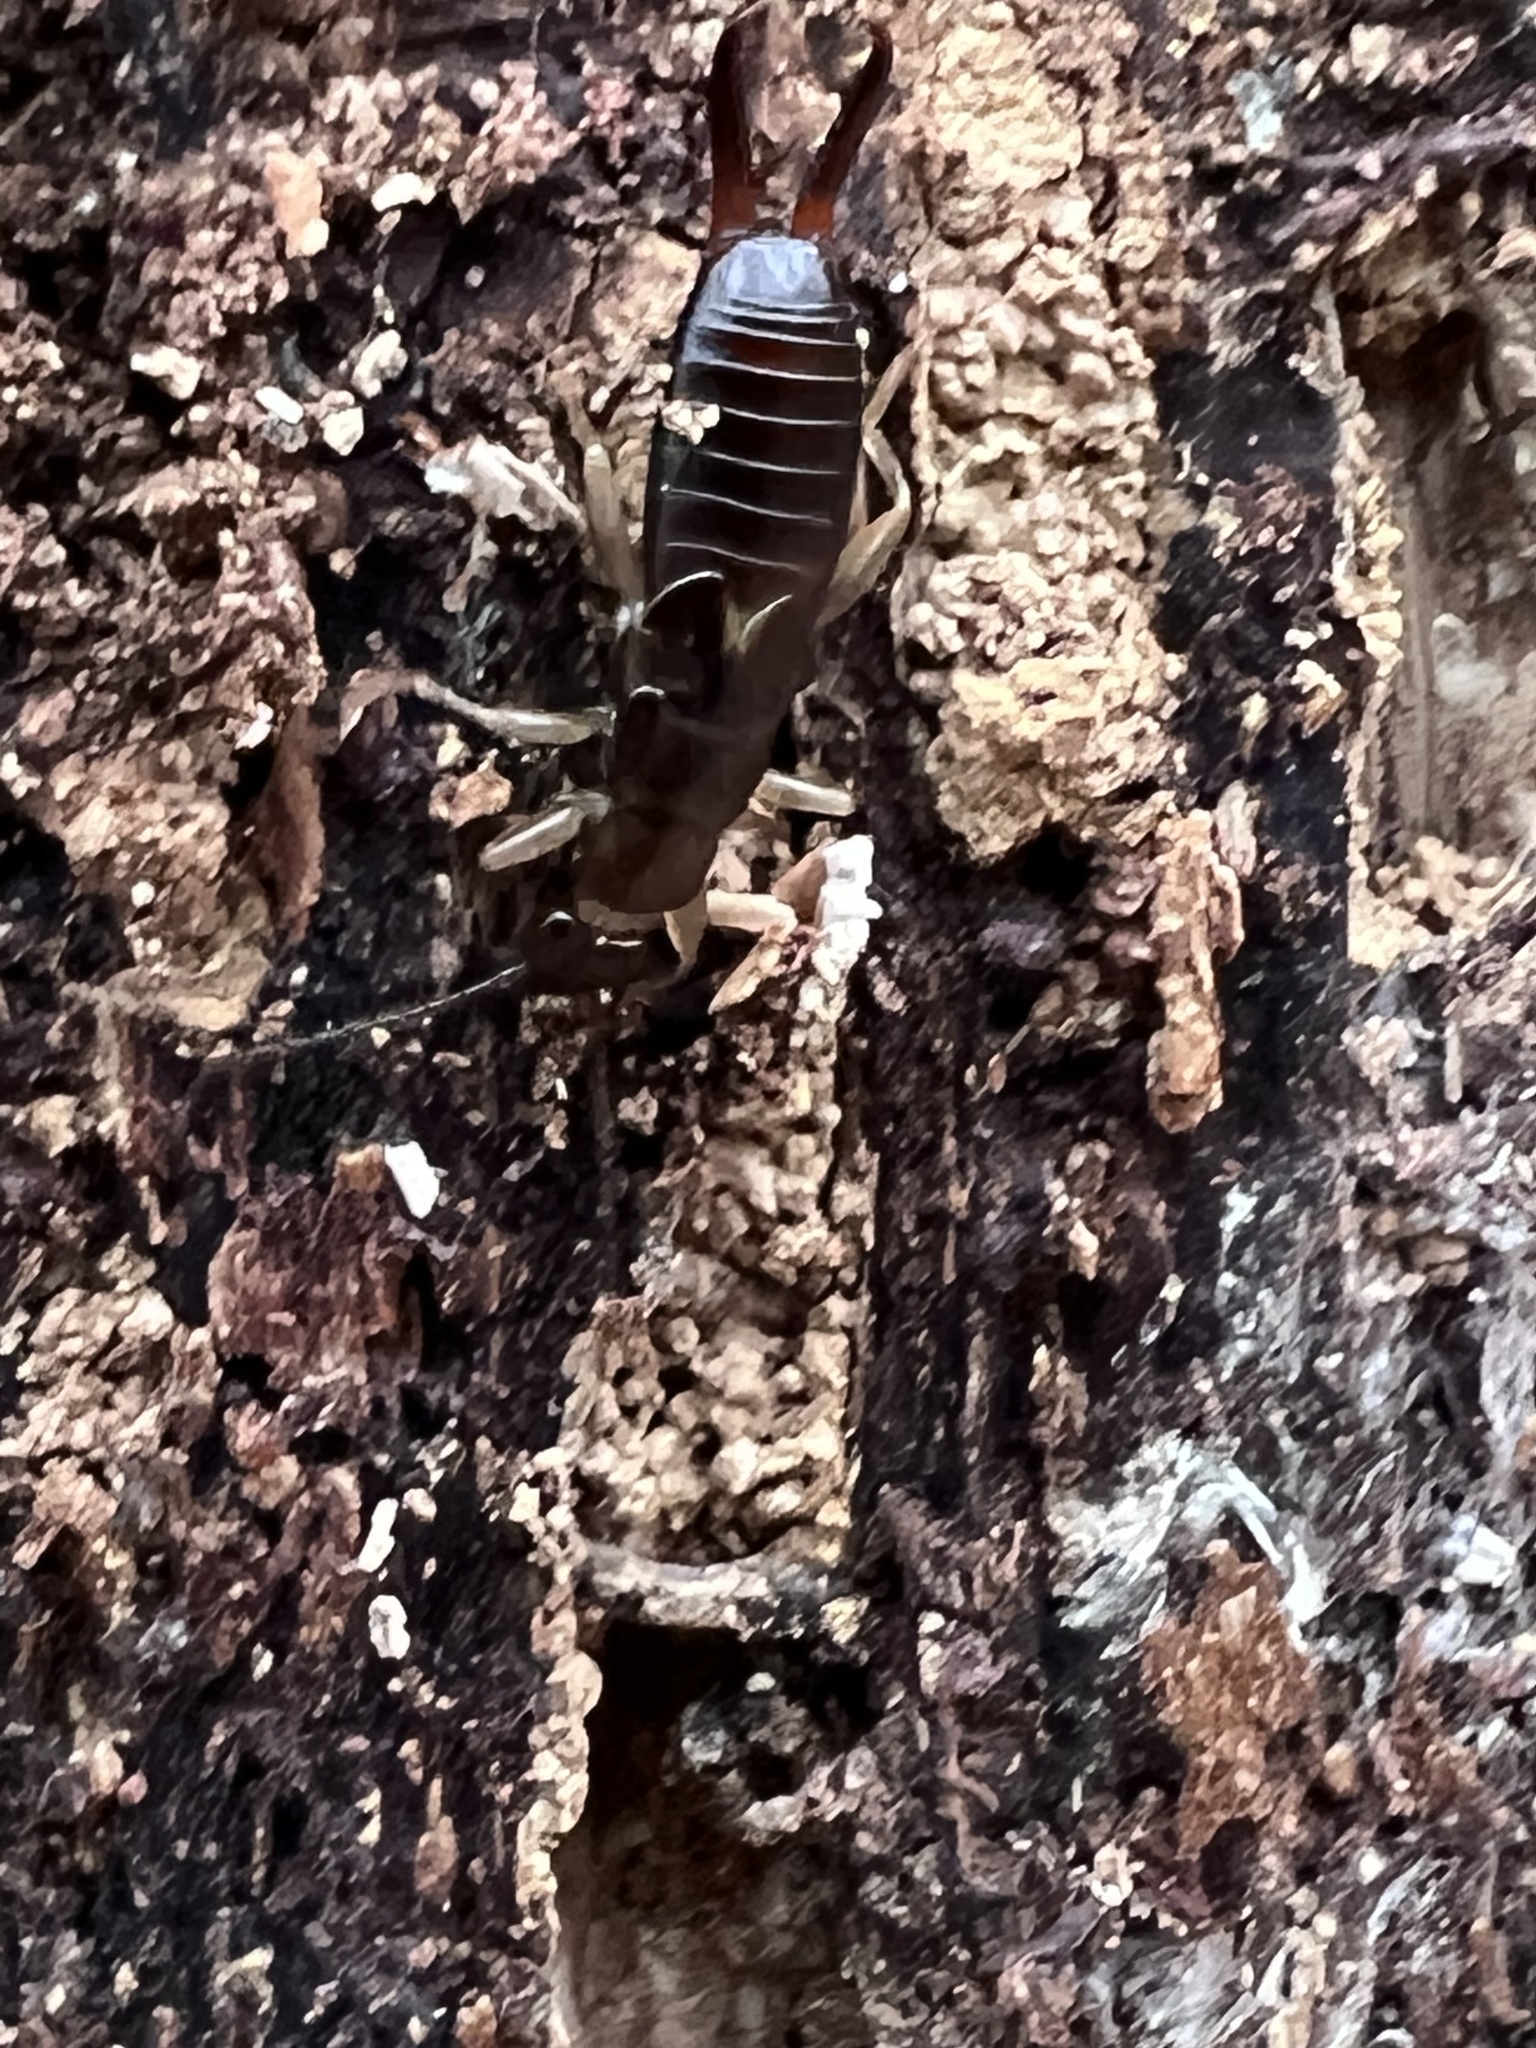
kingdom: Animalia
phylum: Arthropoda
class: Insecta
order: Dermaptera
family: Forficulidae
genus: Forficula
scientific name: Forficula
